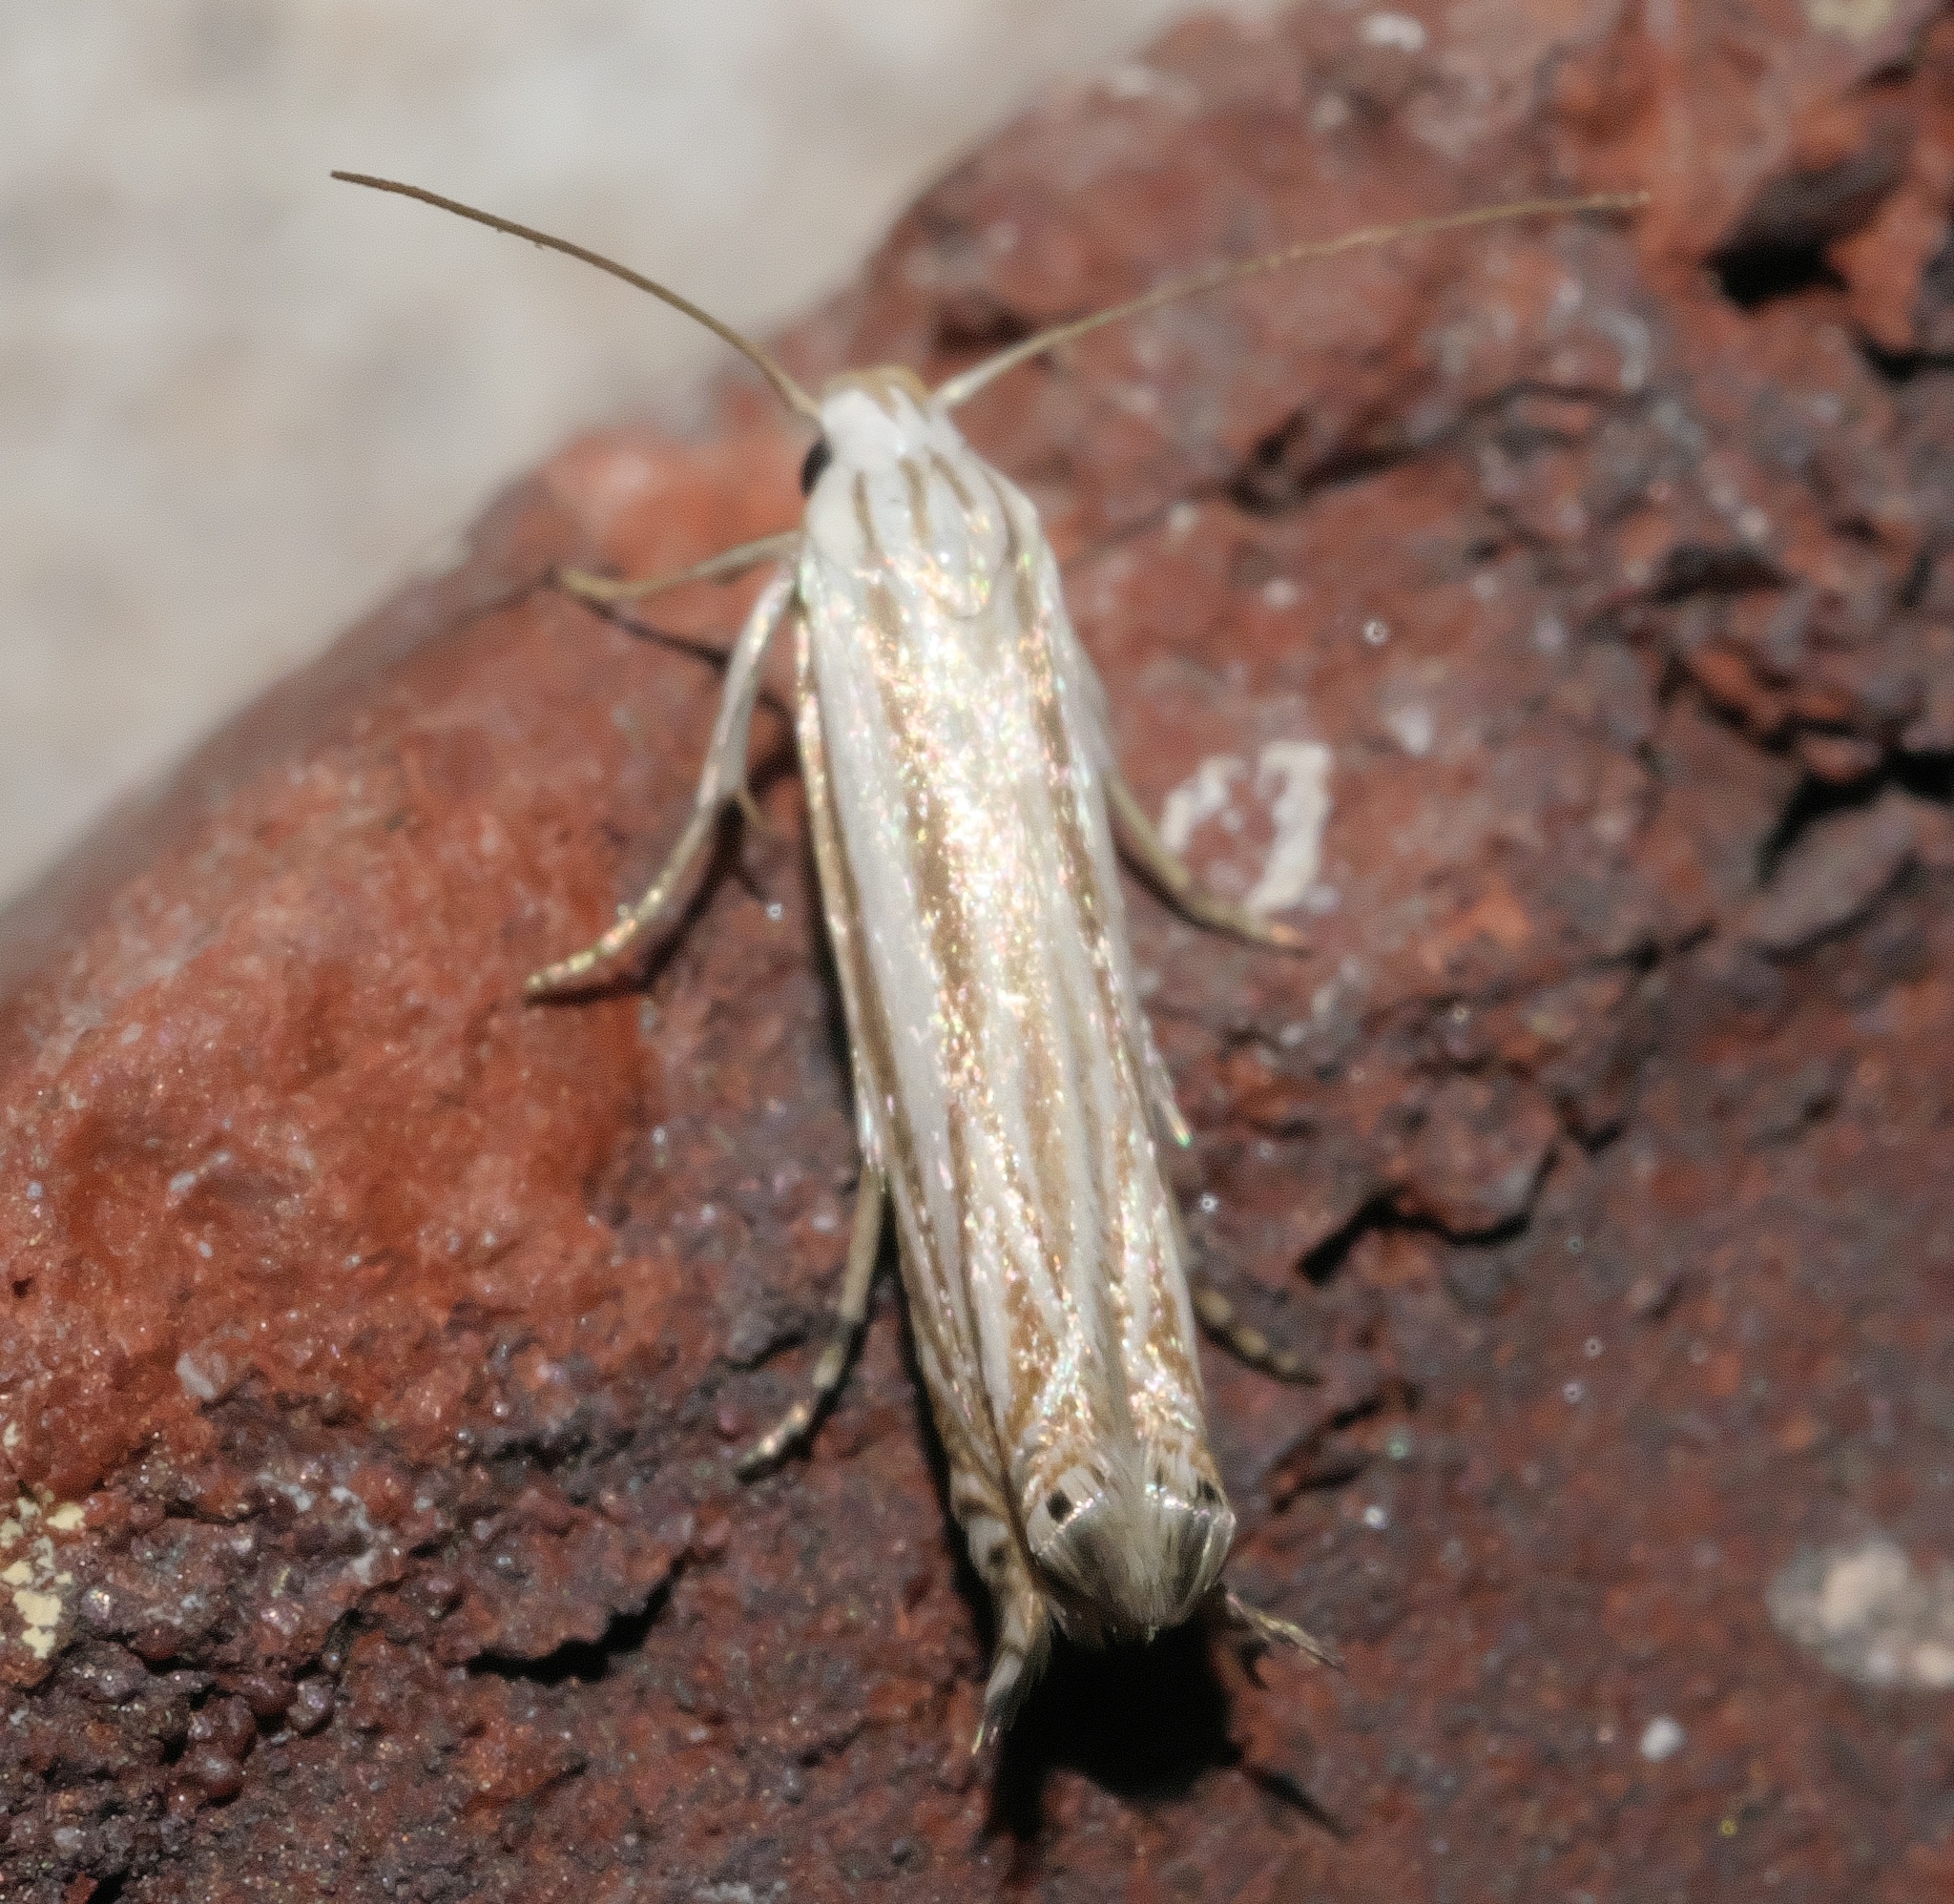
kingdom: Animalia
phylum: Arthropoda
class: Insecta
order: Lepidoptera
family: Gelechiidae
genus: Polyhymno
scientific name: Polyhymno luteostrigella
